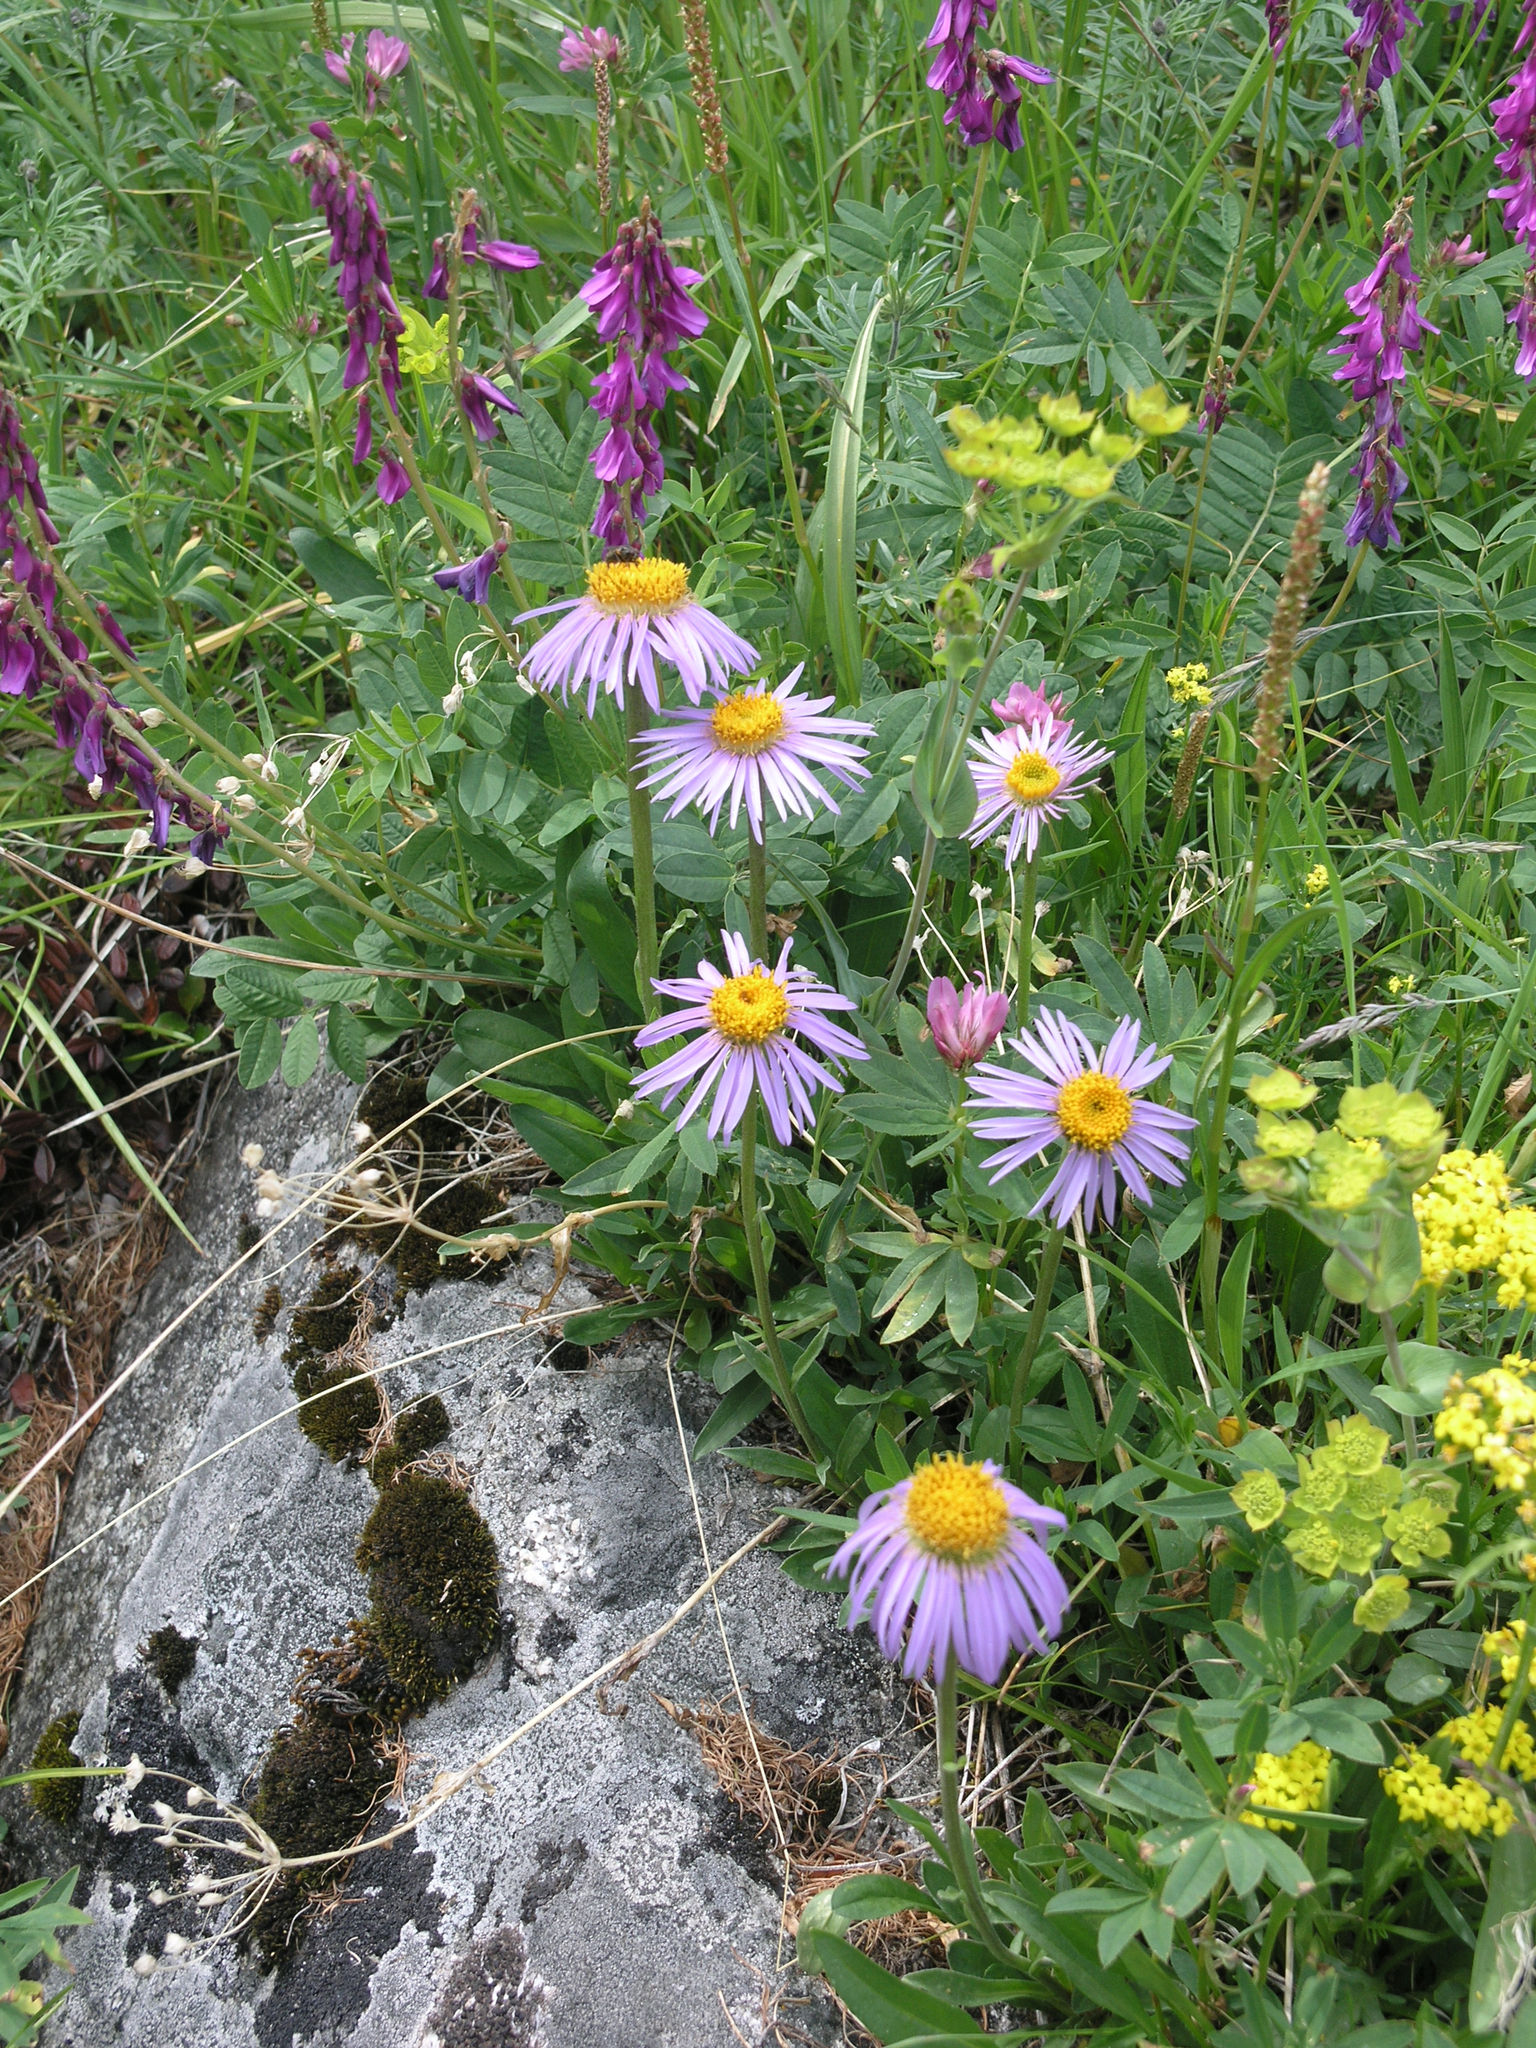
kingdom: Plantae
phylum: Tracheophyta
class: Magnoliopsida
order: Apiales
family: Apiaceae
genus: Bupleurum
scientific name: Bupleurum multinerve
